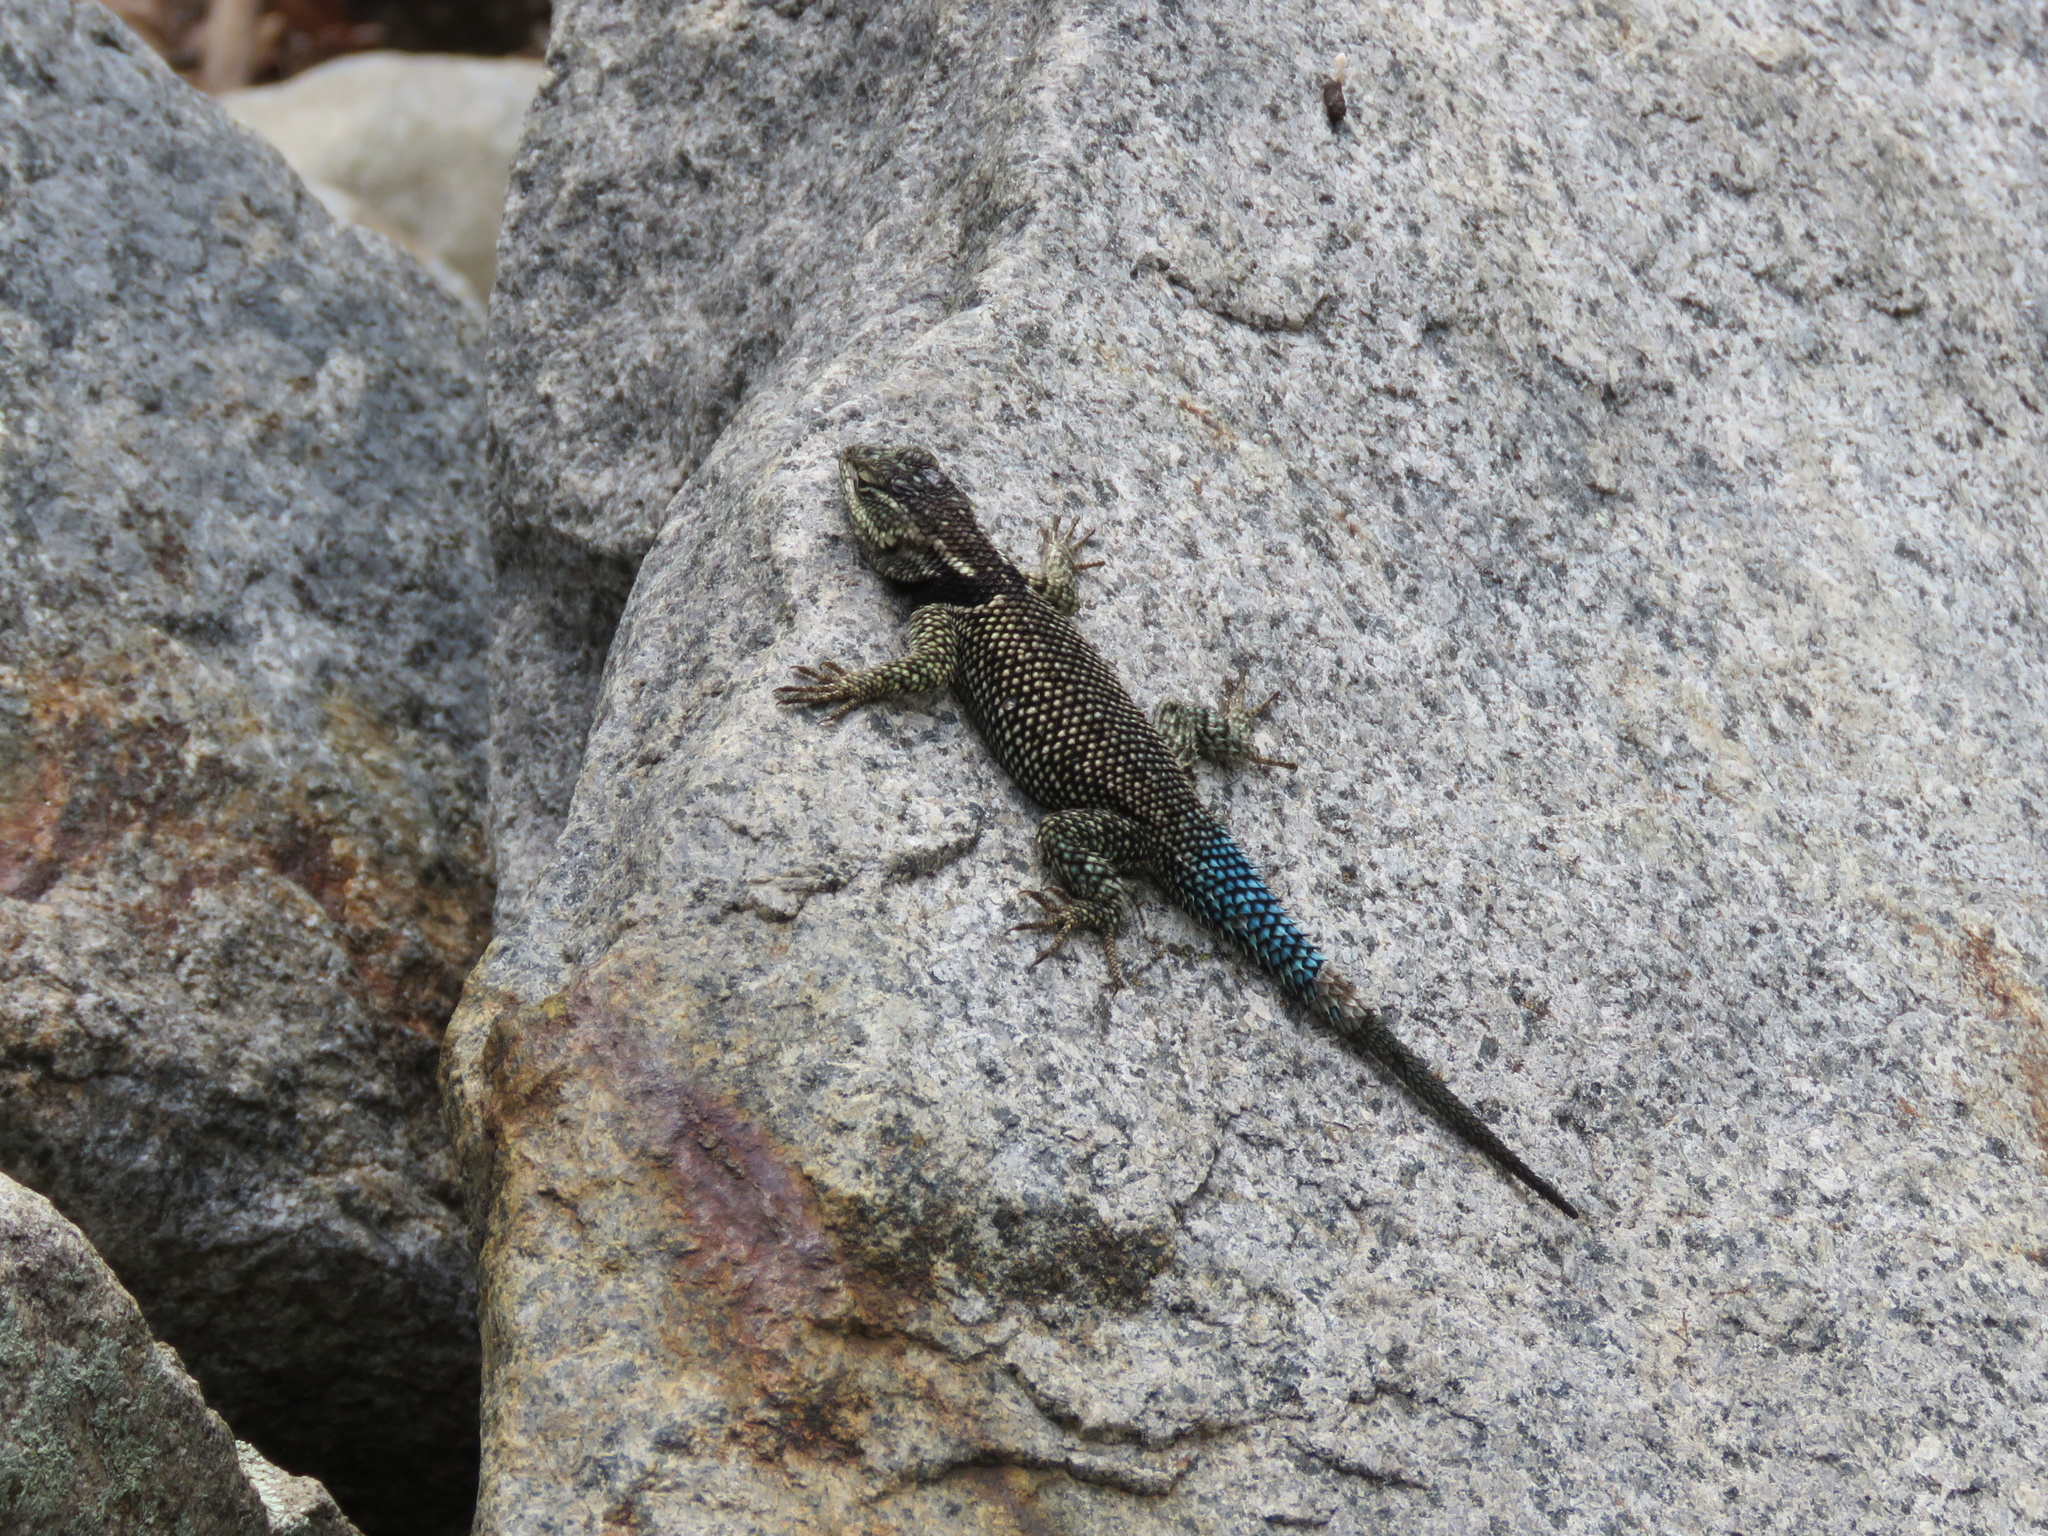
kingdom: Animalia
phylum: Chordata
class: Squamata
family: Phrynosomatidae
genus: Sceloporus
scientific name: Sceloporus jarrovii
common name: Yarrow's spiny lizard
